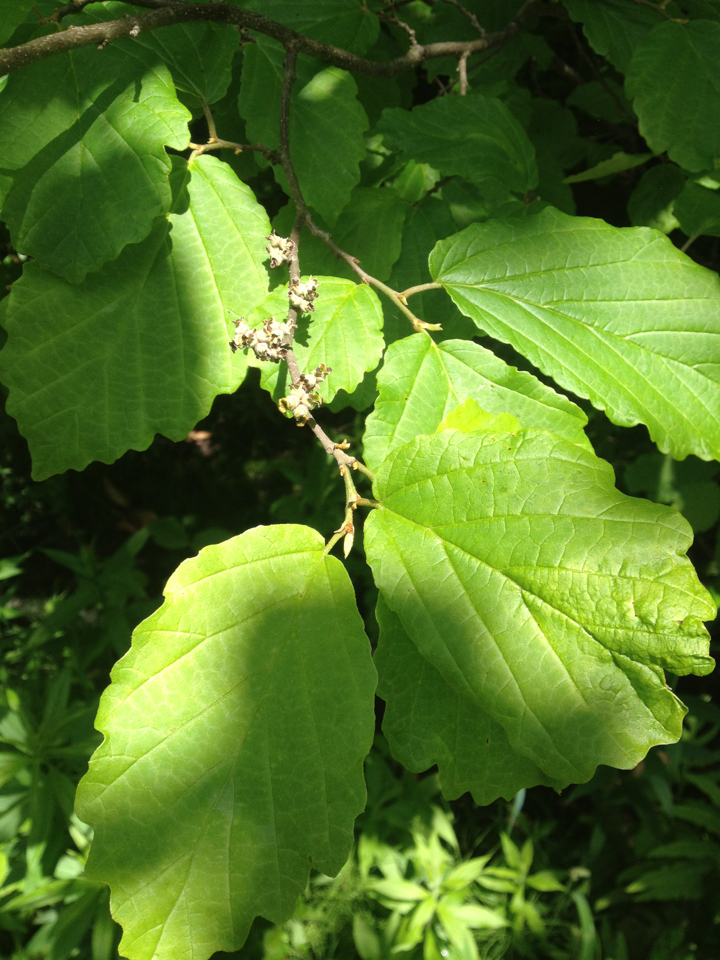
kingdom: Plantae
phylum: Tracheophyta
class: Magnoliopsida
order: Saxifragales
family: Hamamelidaceae
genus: Hamamelis
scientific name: Hamamelis virginiana
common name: Witch-hazel
